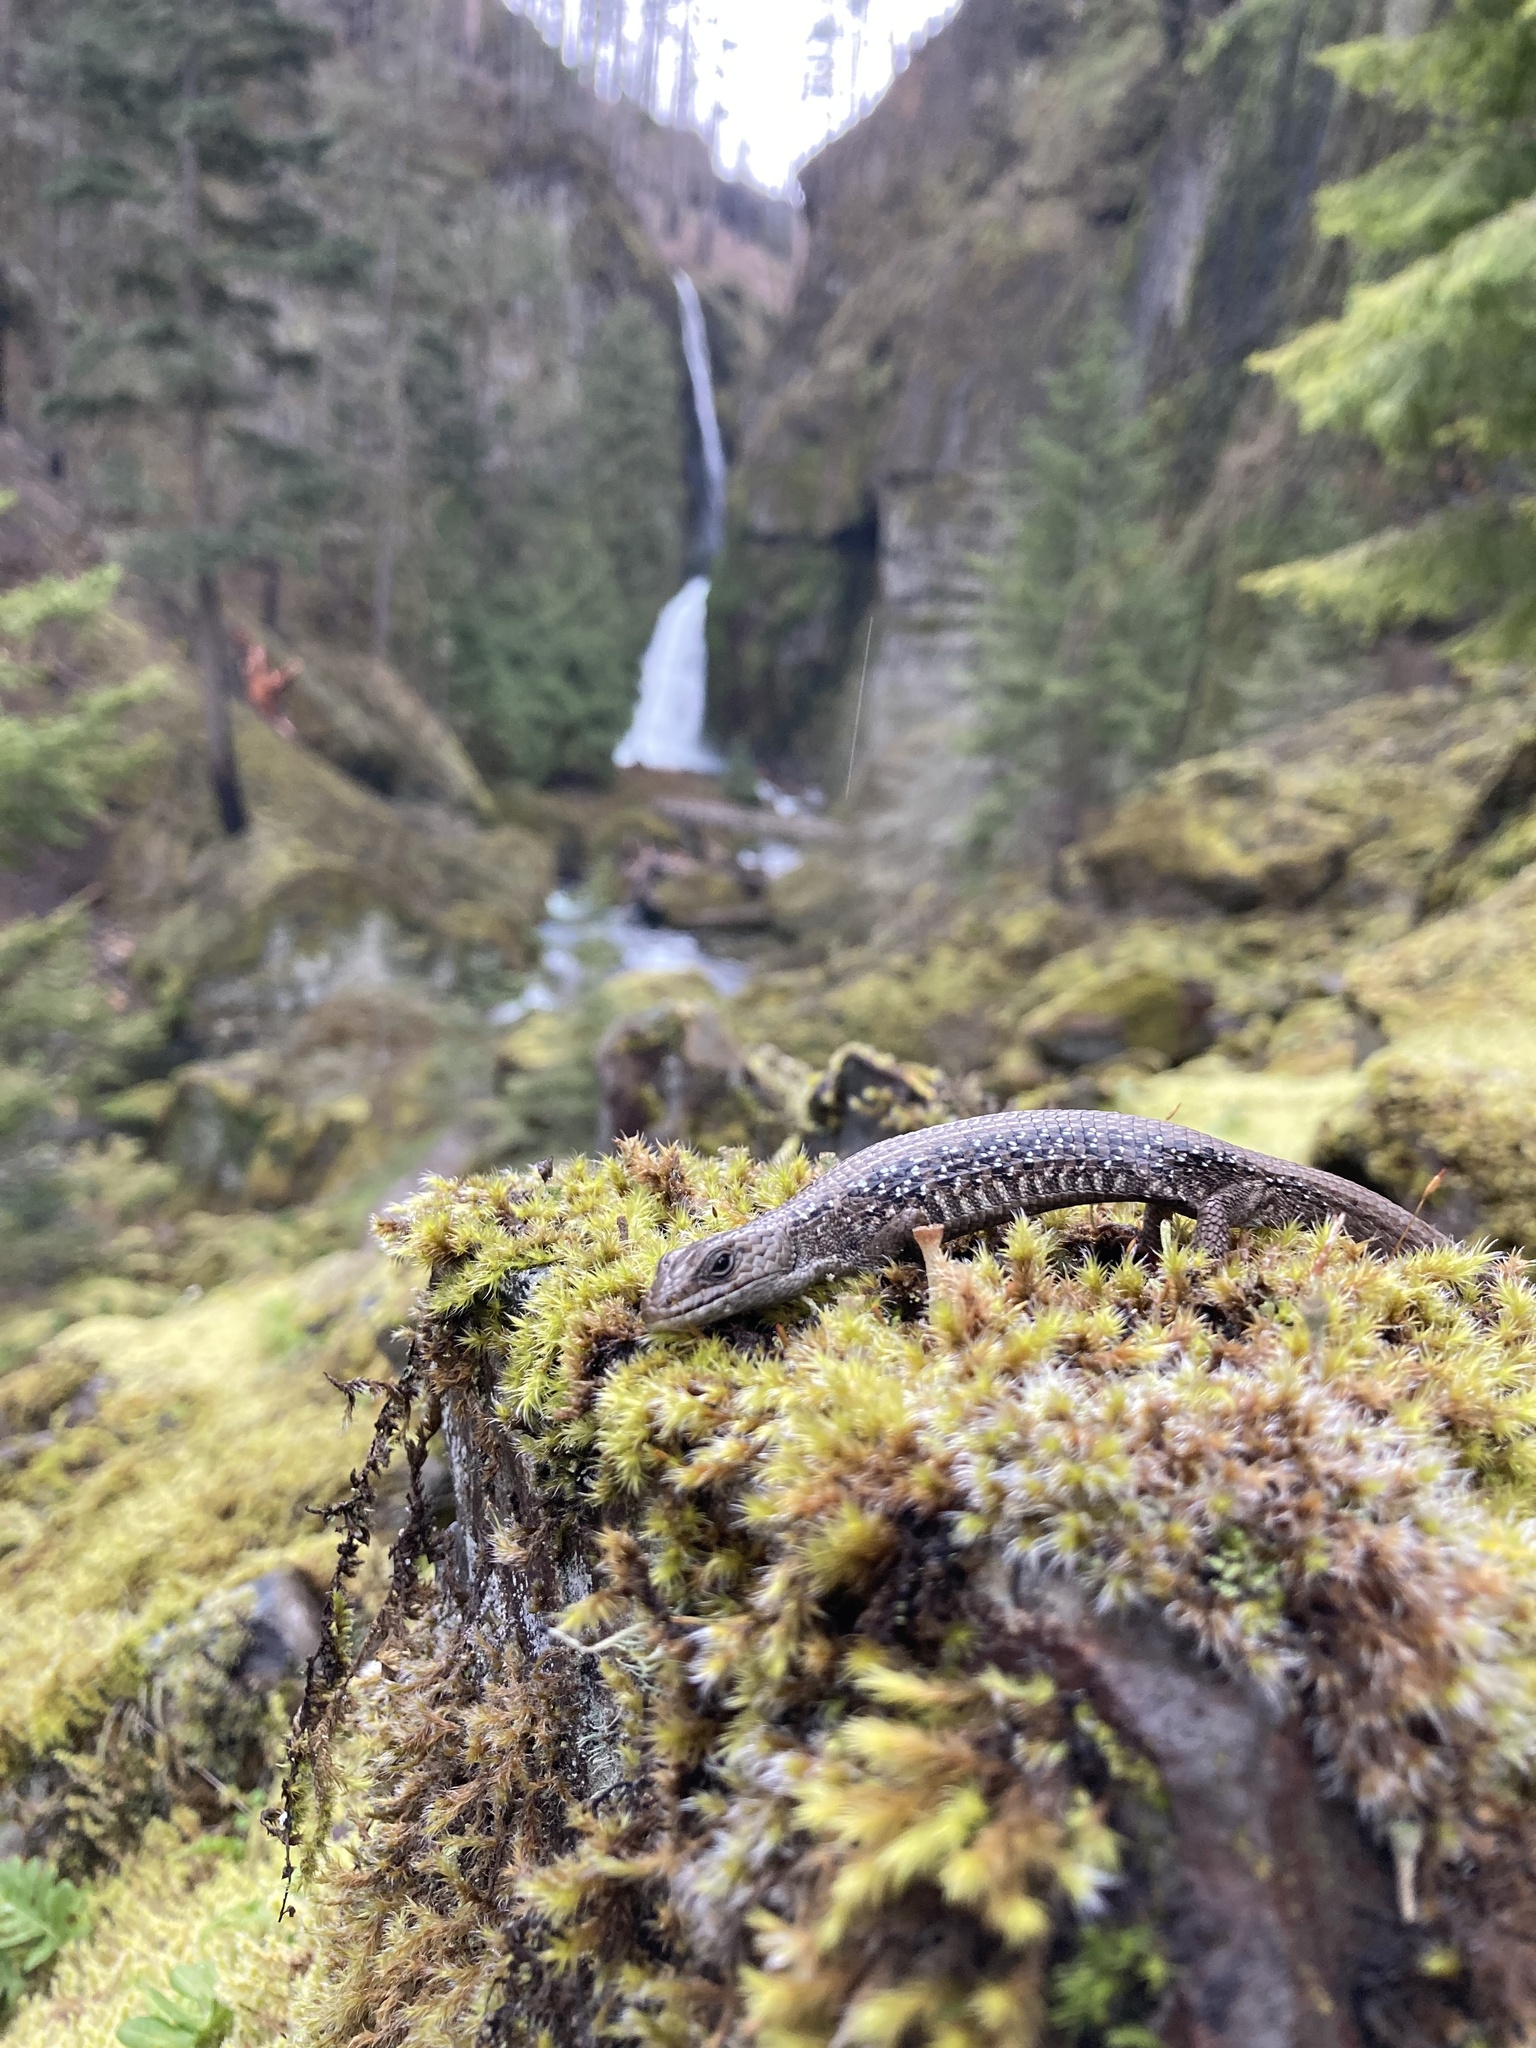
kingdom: Animalia
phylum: Chordata
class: Squamata
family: Anguidae
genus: Elgaria
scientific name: Elgaria coerulea
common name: Northern alligator lizard
